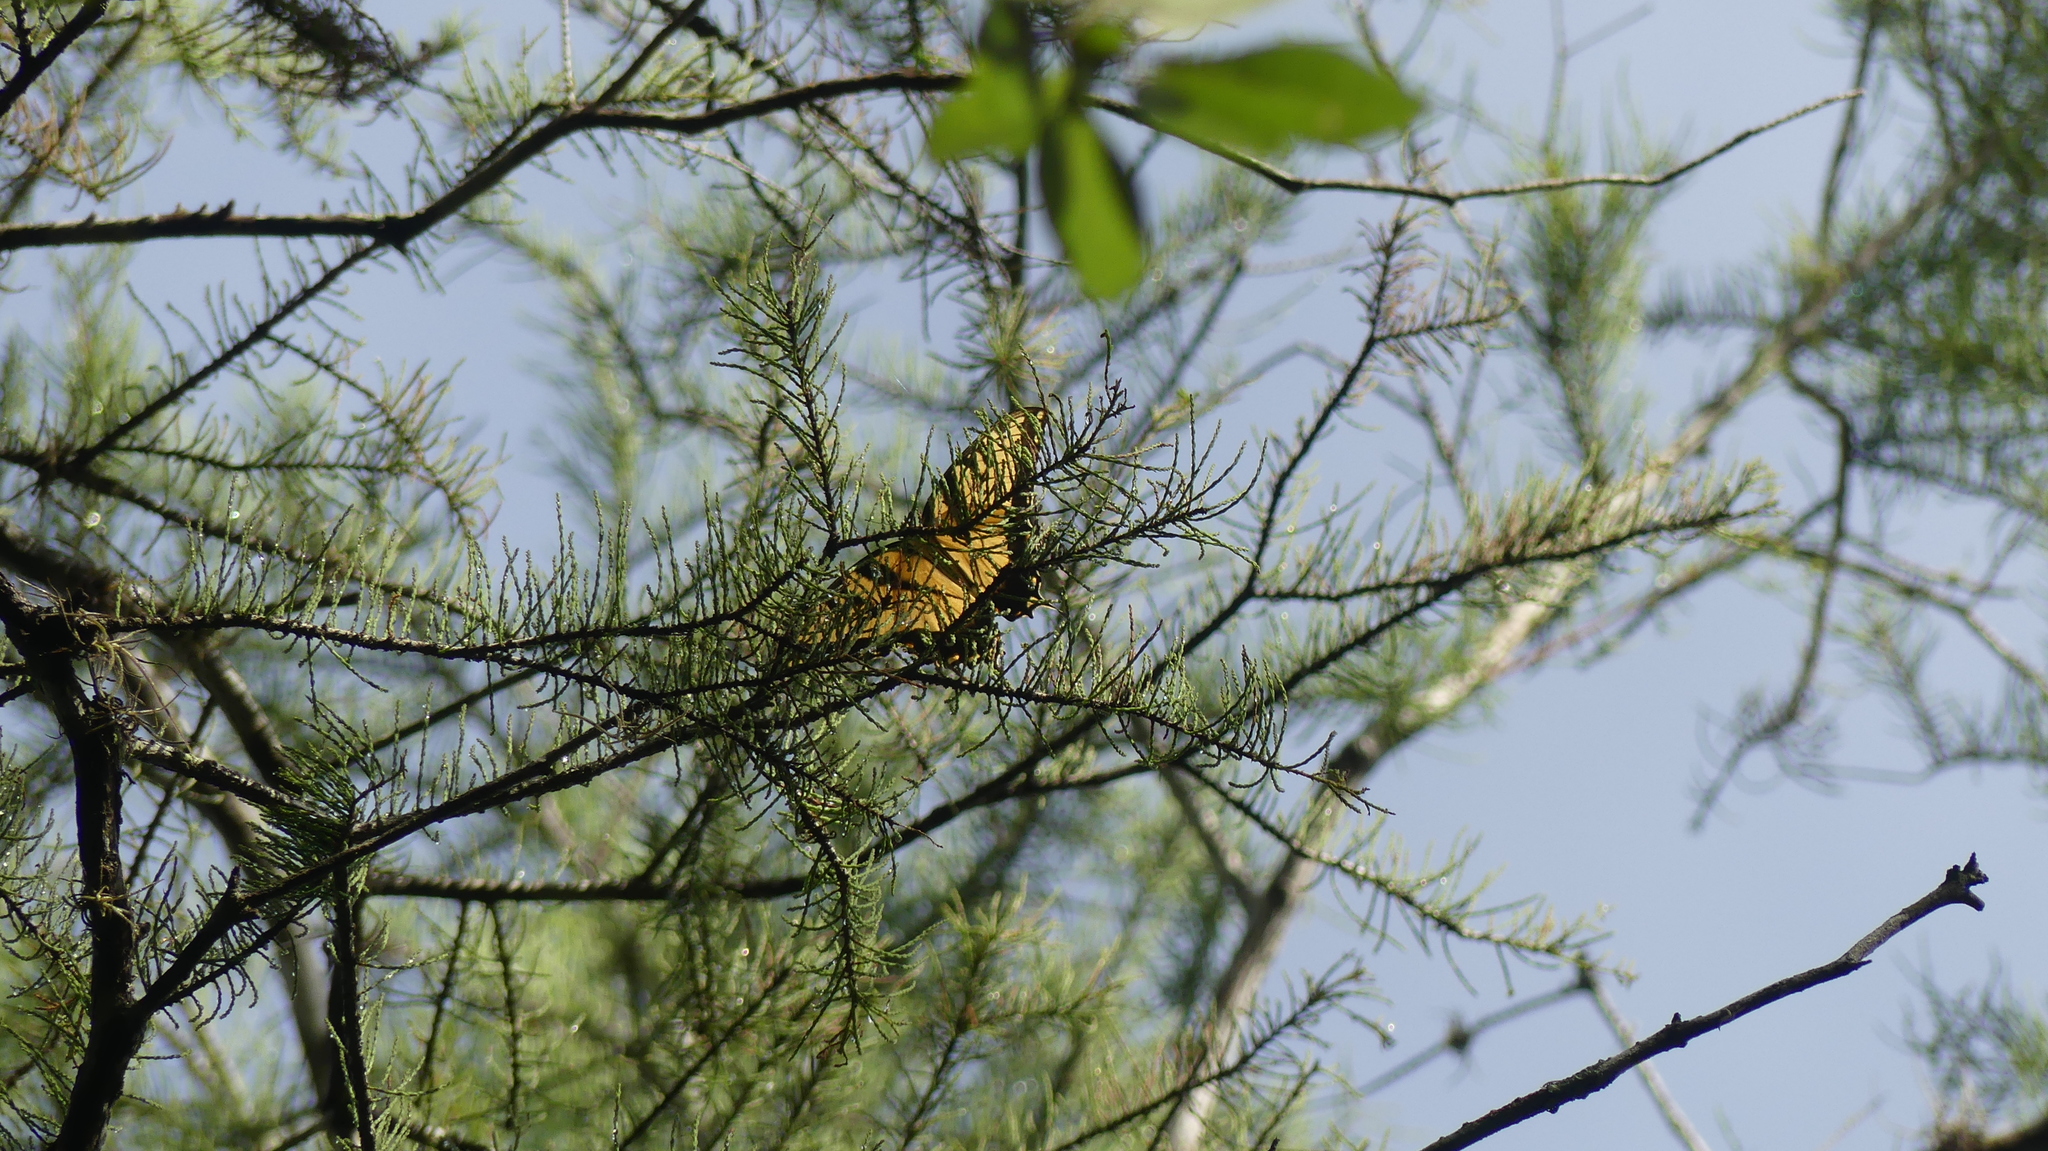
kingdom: Animalia
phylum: Arthropoda
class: Insecta
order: Lepidoptera
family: Papilionidae
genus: Papilio
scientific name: Papilio glaucus
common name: Tiger swallowtail
